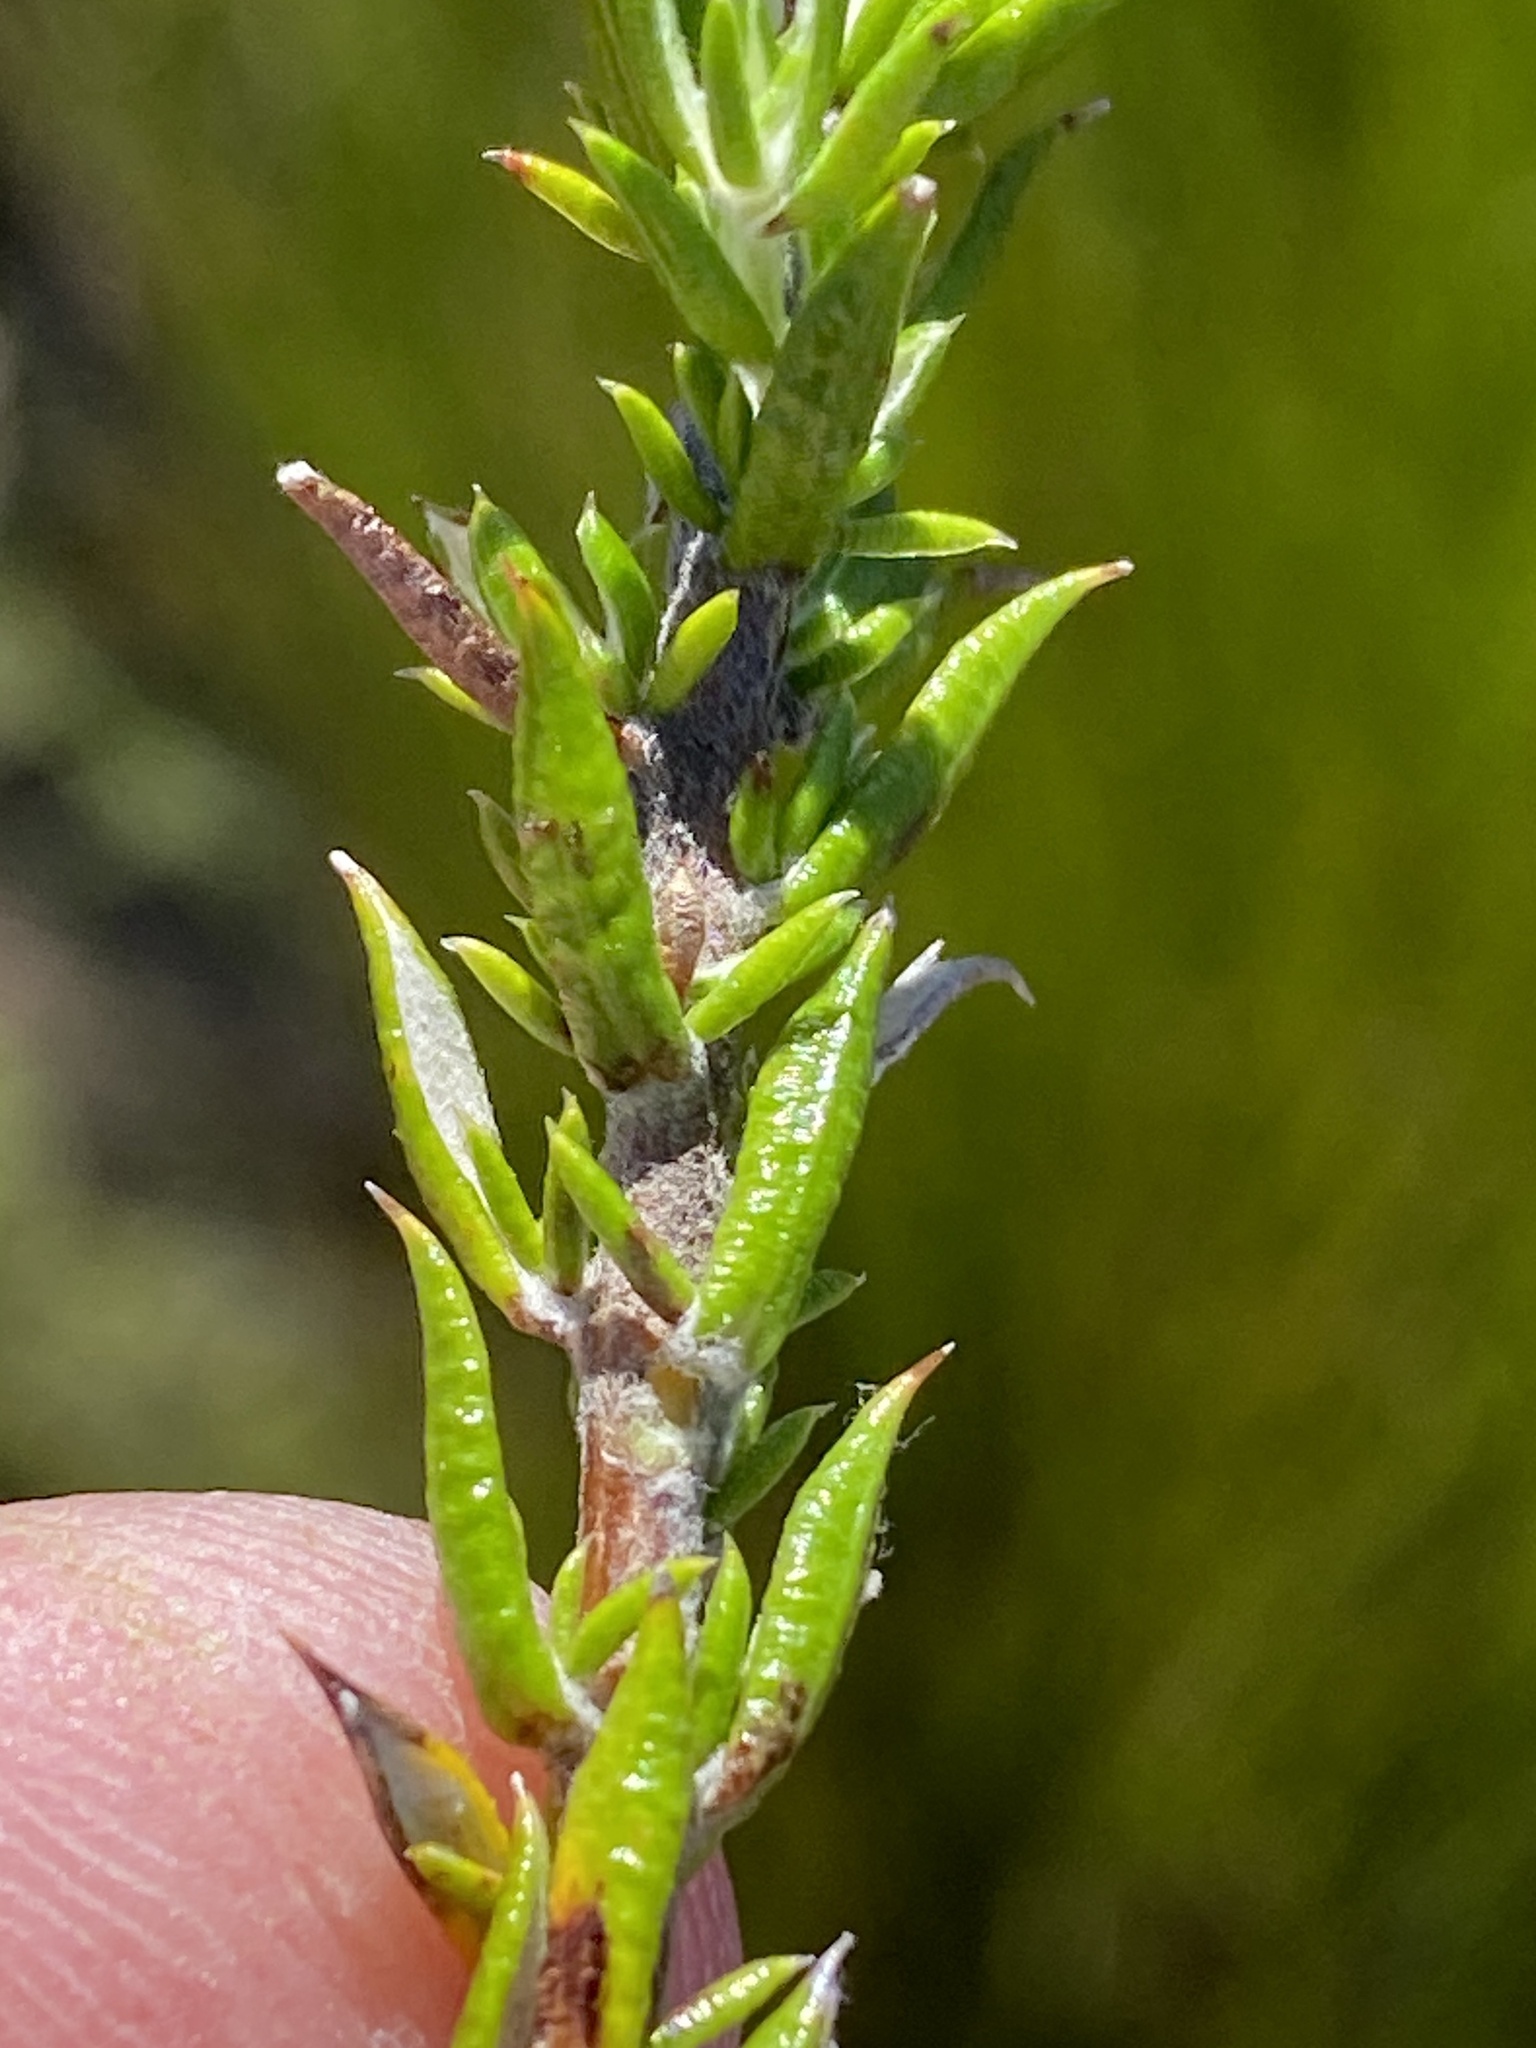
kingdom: Plantae
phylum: Tracheophyta
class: Magnoliopsida
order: Asterales
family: Asteraceae
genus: Metalasia
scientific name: Metalasia pungens
